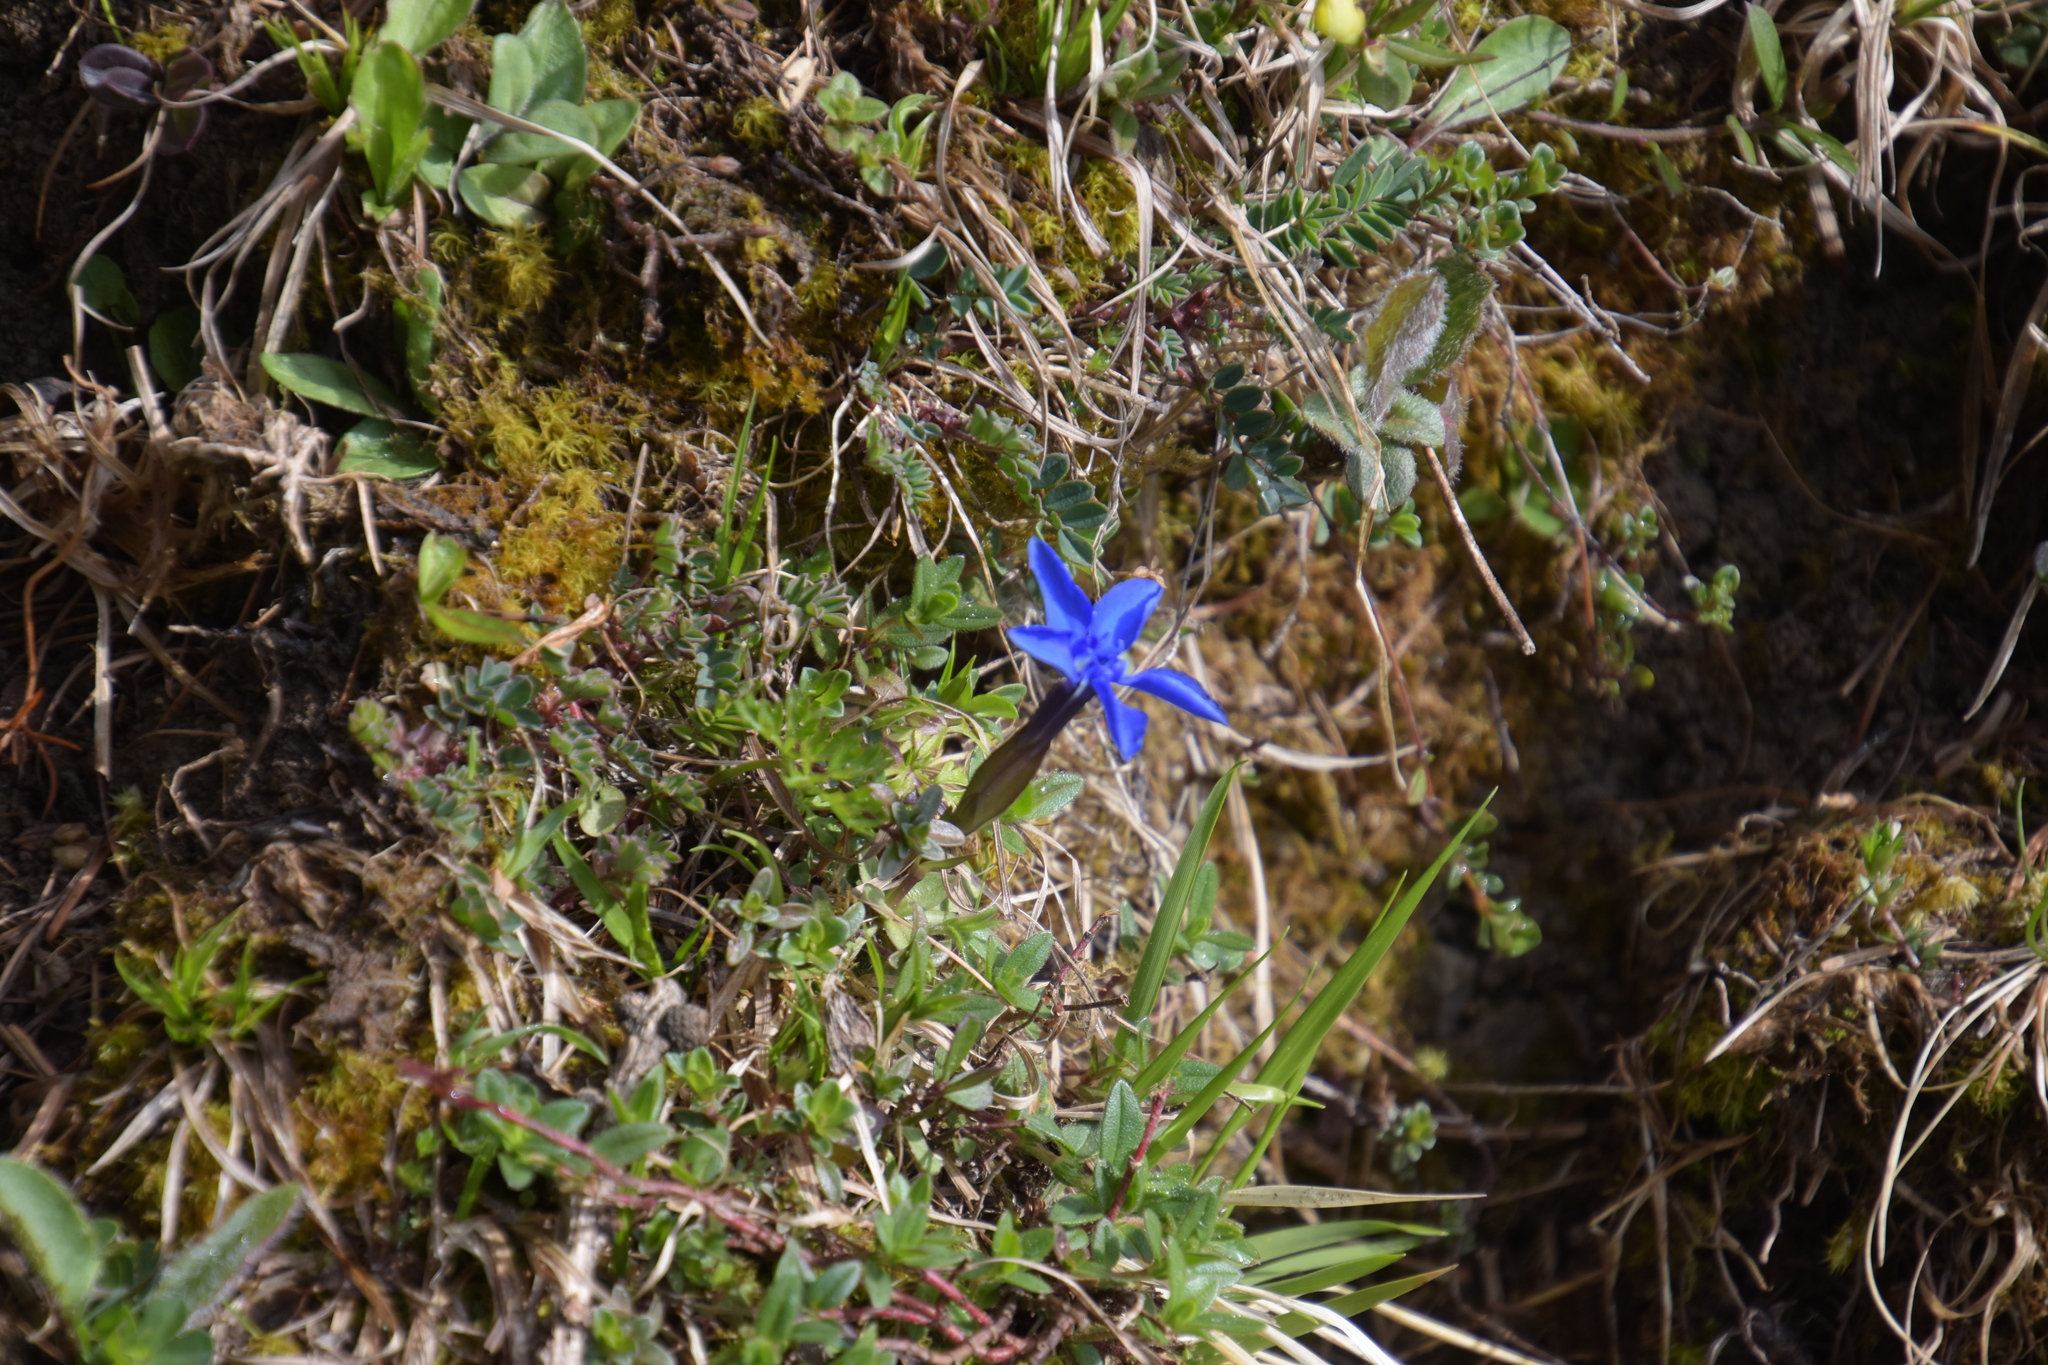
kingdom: Plantae
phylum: Tracheophyta
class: Magnoliopsida
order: Gentianales
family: Gentianaceae
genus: Gentiana
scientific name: Gentiana verna
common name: Spring gentian
